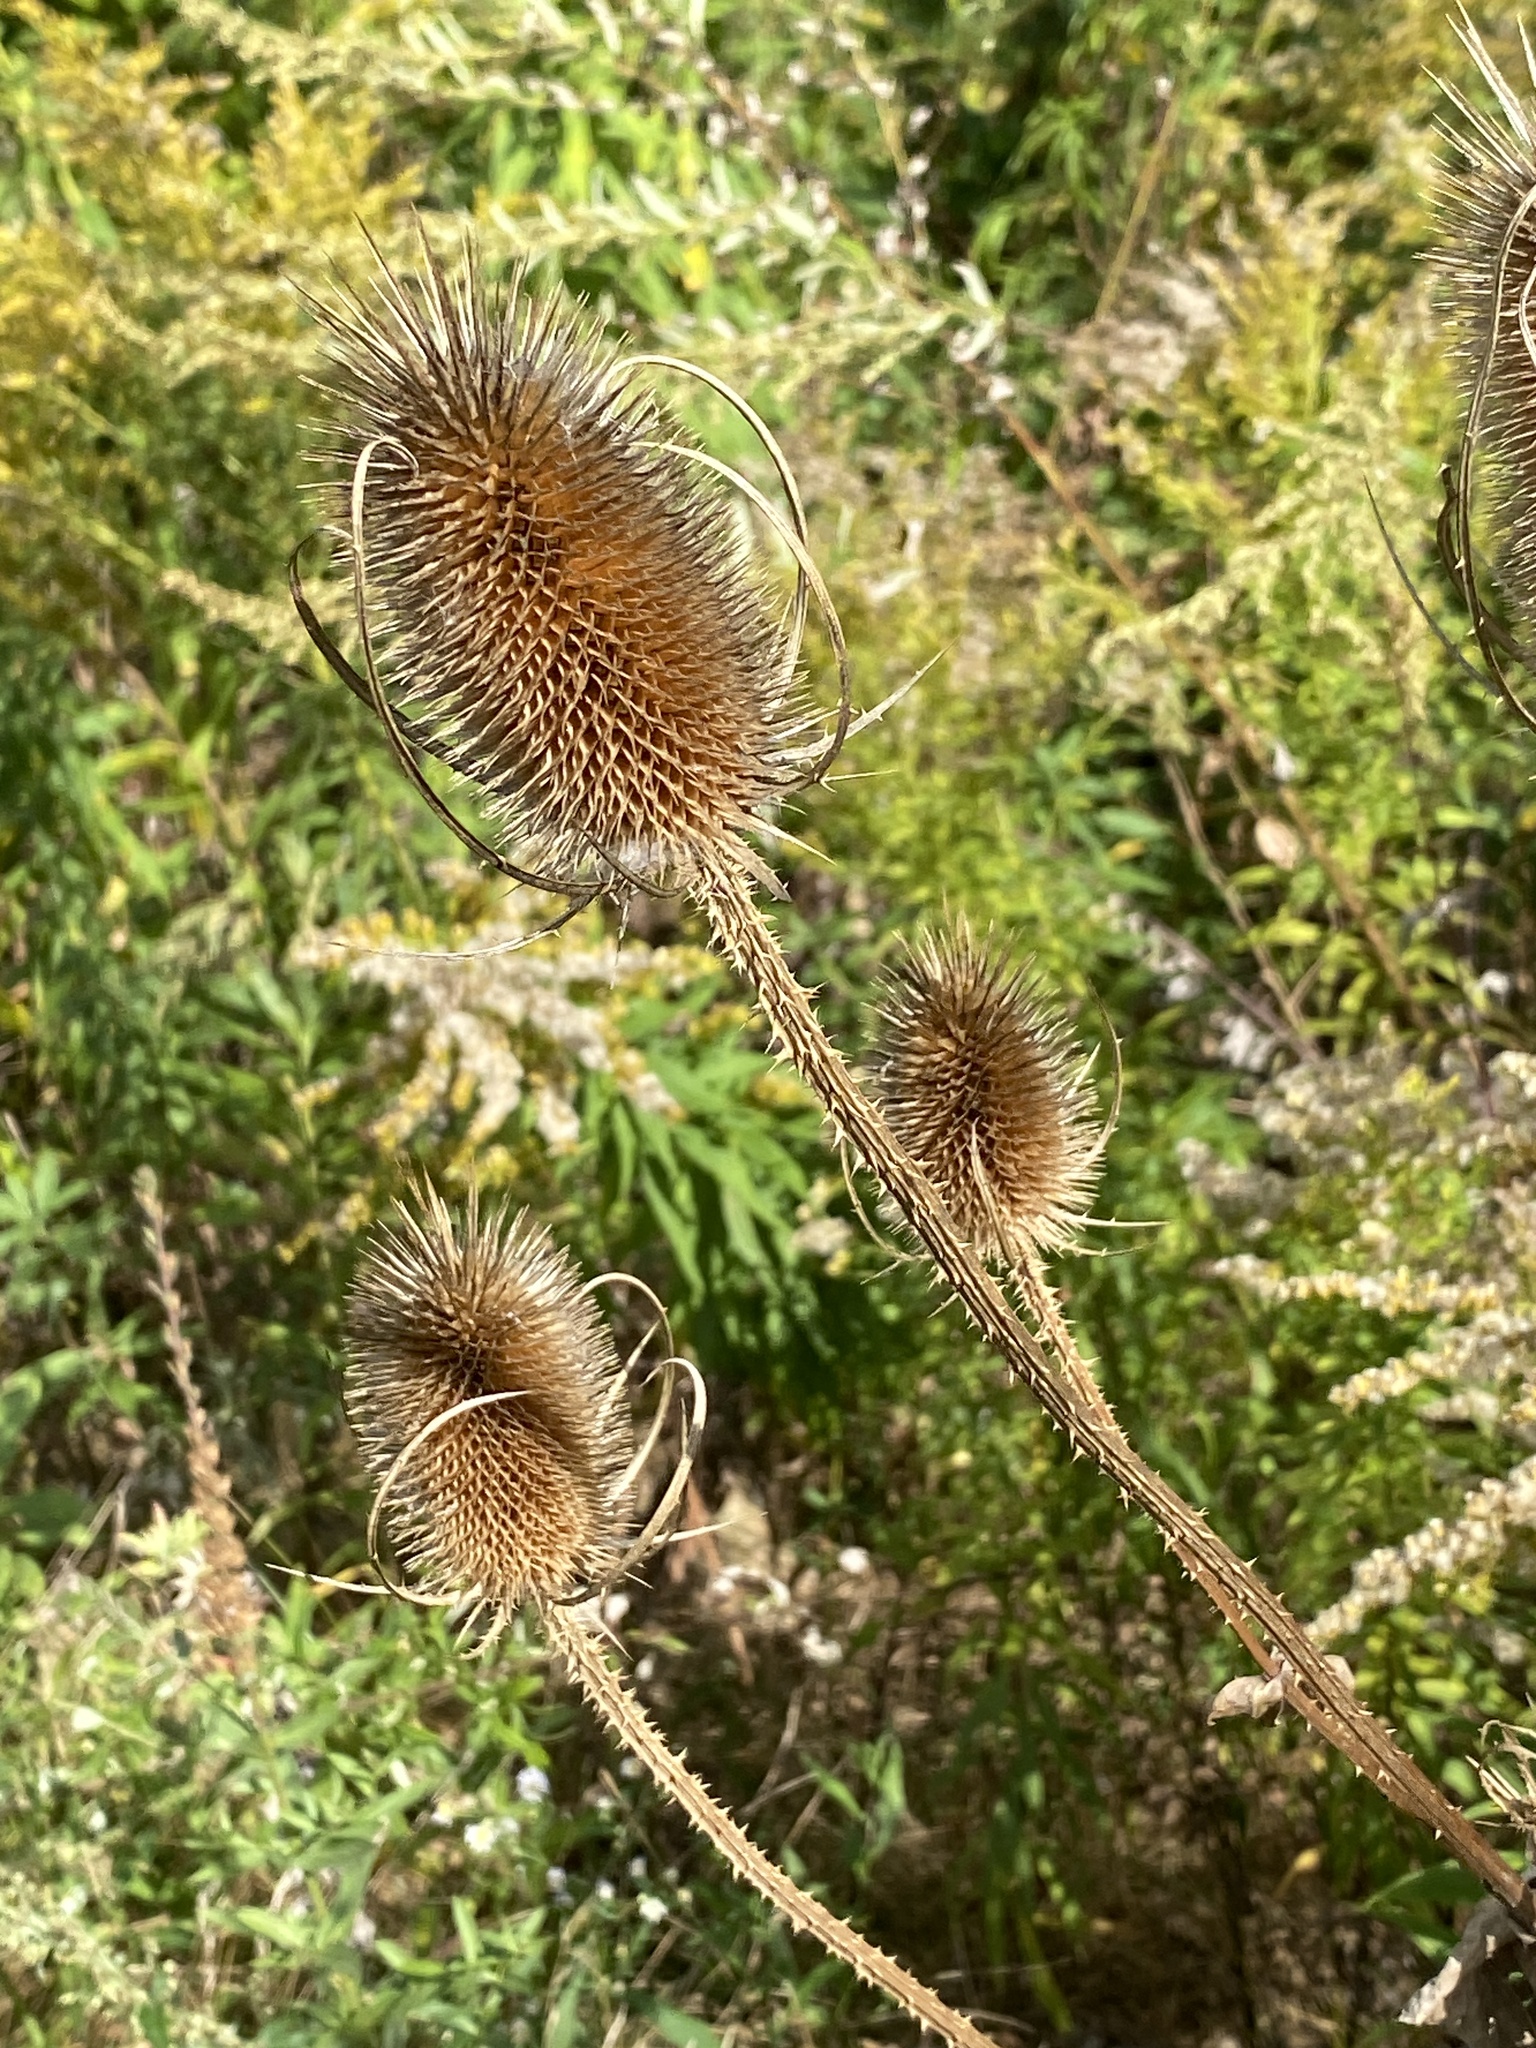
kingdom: Plantae
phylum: Tracheophyta
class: Magnoliopsida
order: Dipsacales
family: Caprifoliaceae
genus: Dipsacus
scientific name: Dipsacus fullonum
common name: Teasel
